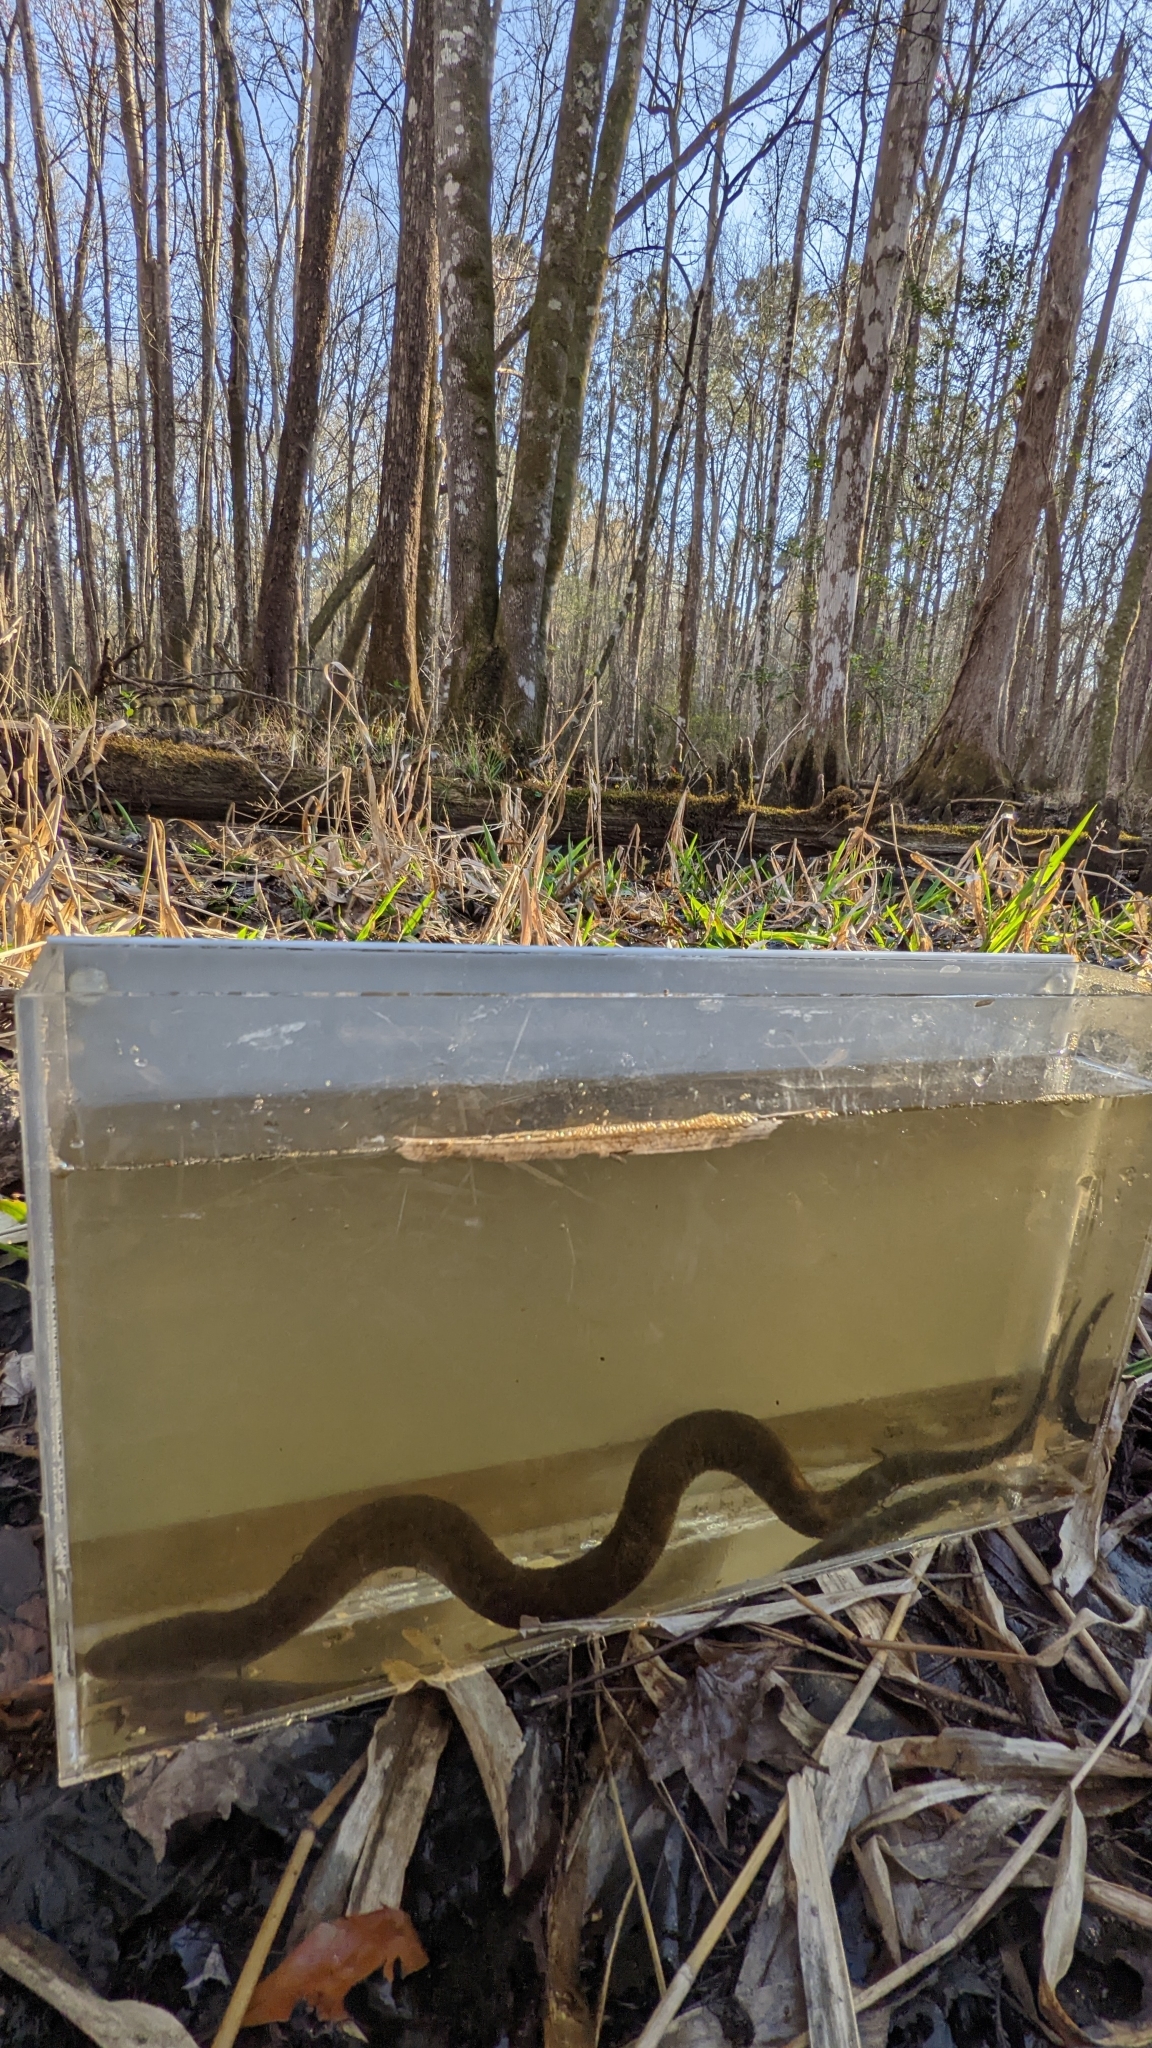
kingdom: Animalia
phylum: Chordata
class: Amphibia
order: Caudata
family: Amphiumidae
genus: Amphiuma
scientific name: Amphiuma means
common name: Two-toed amphiuma
